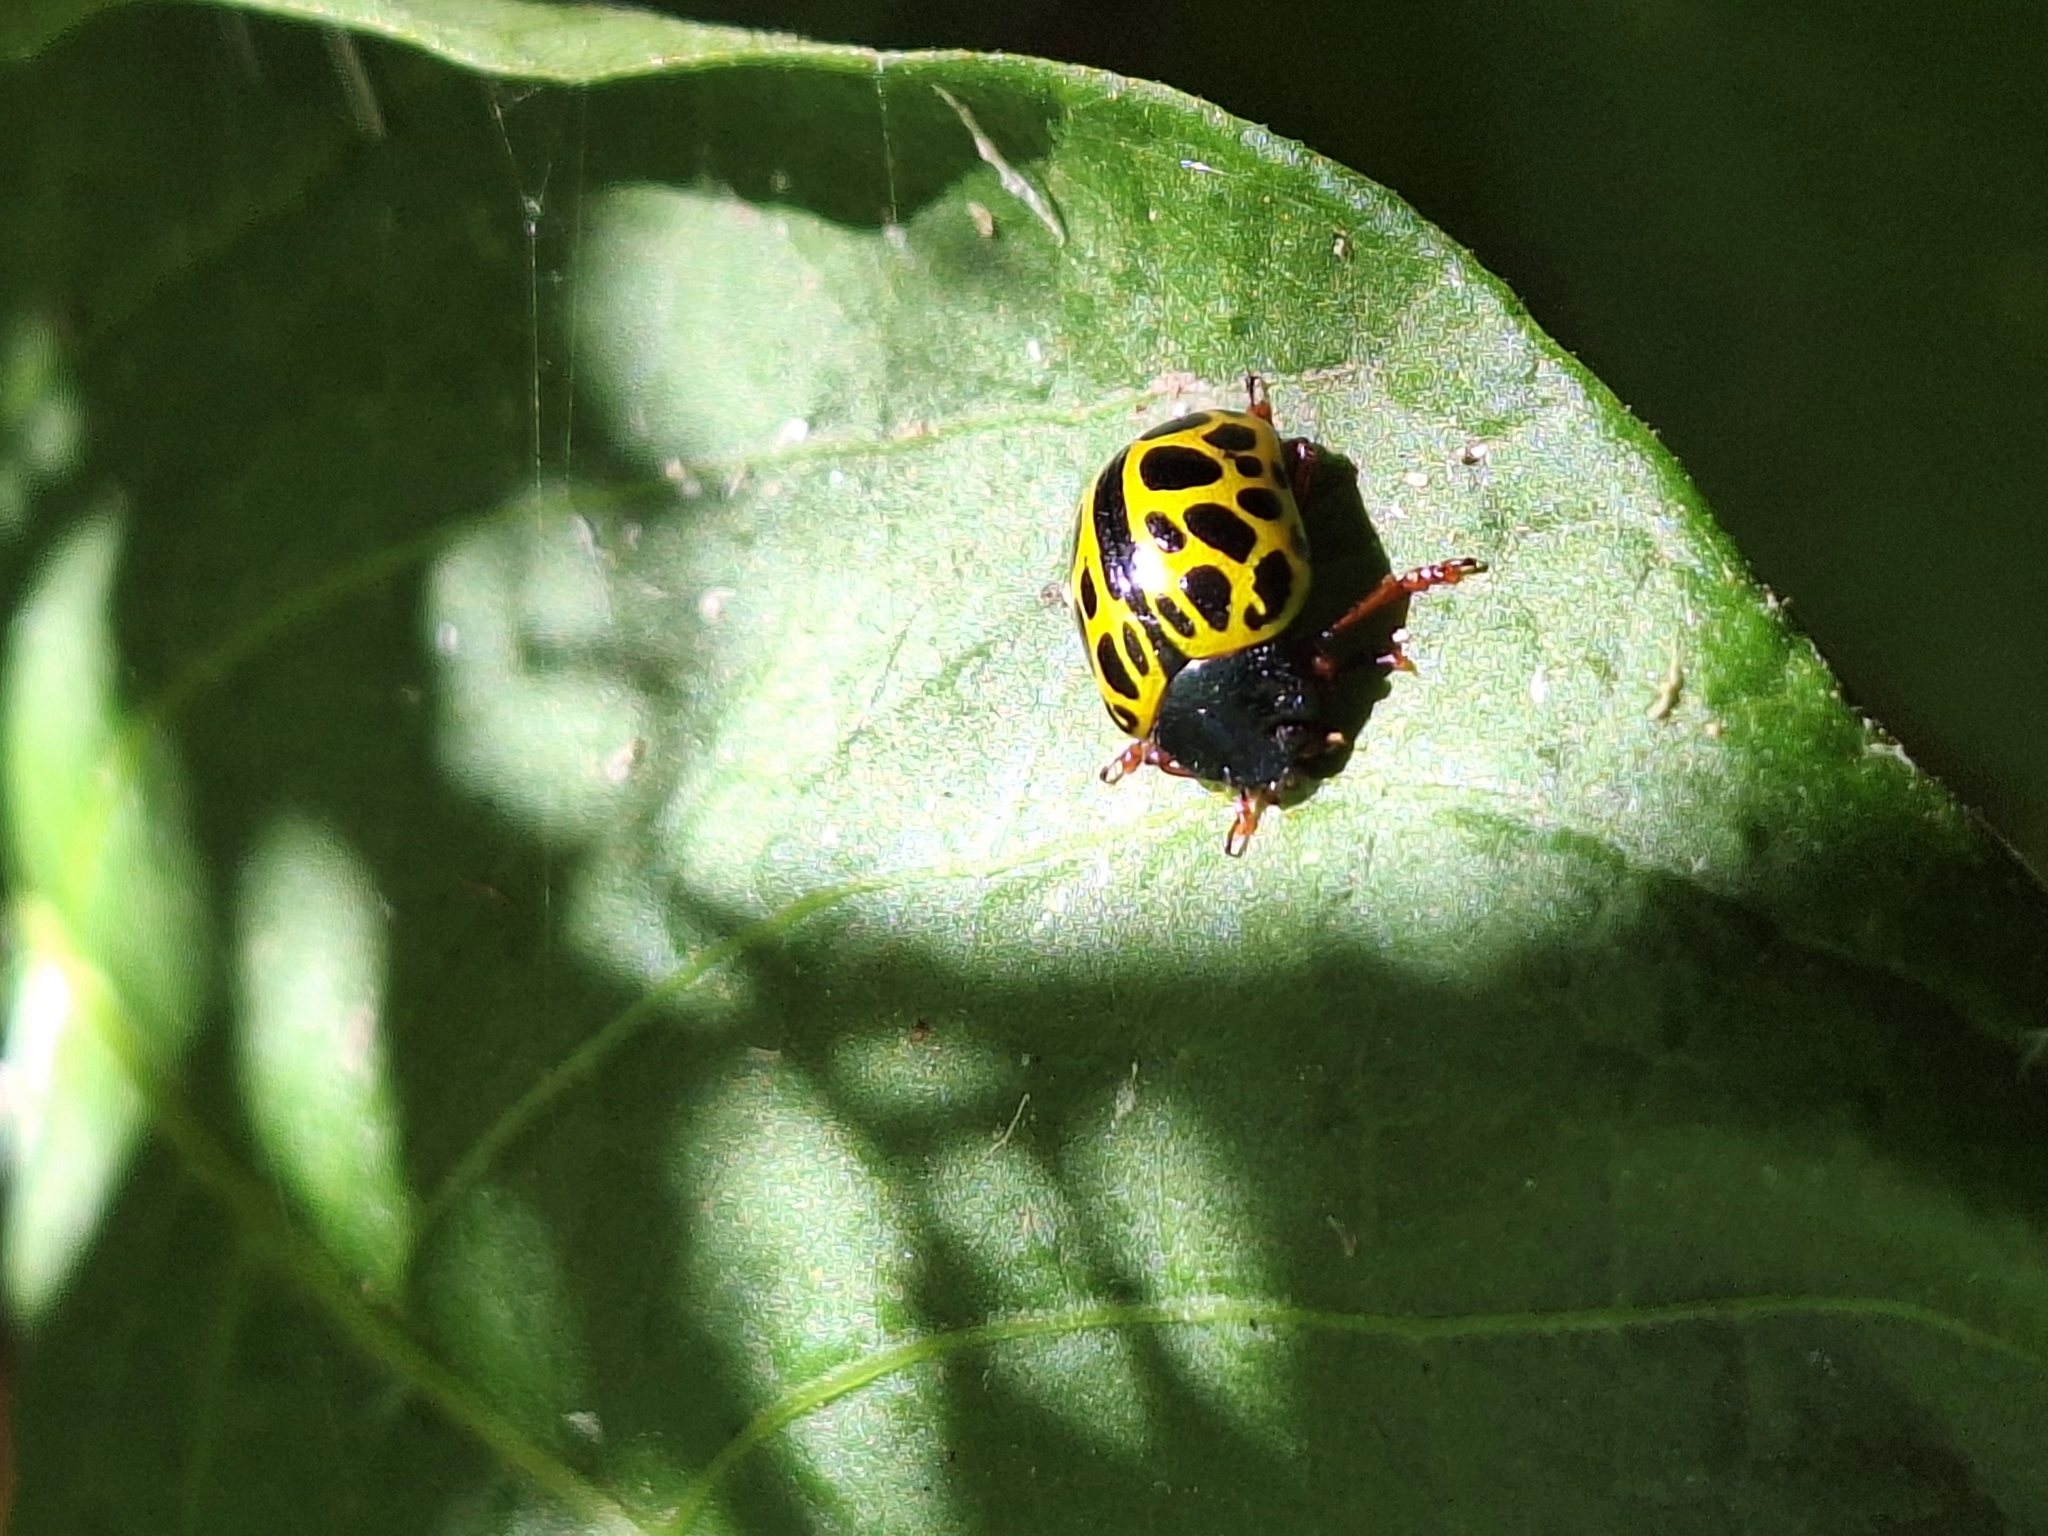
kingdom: Animalia
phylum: Arthropoda
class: Insecta
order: Coleoptera
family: Chrysomelidae
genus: Calligrapha
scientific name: Calligrapha polyspila
